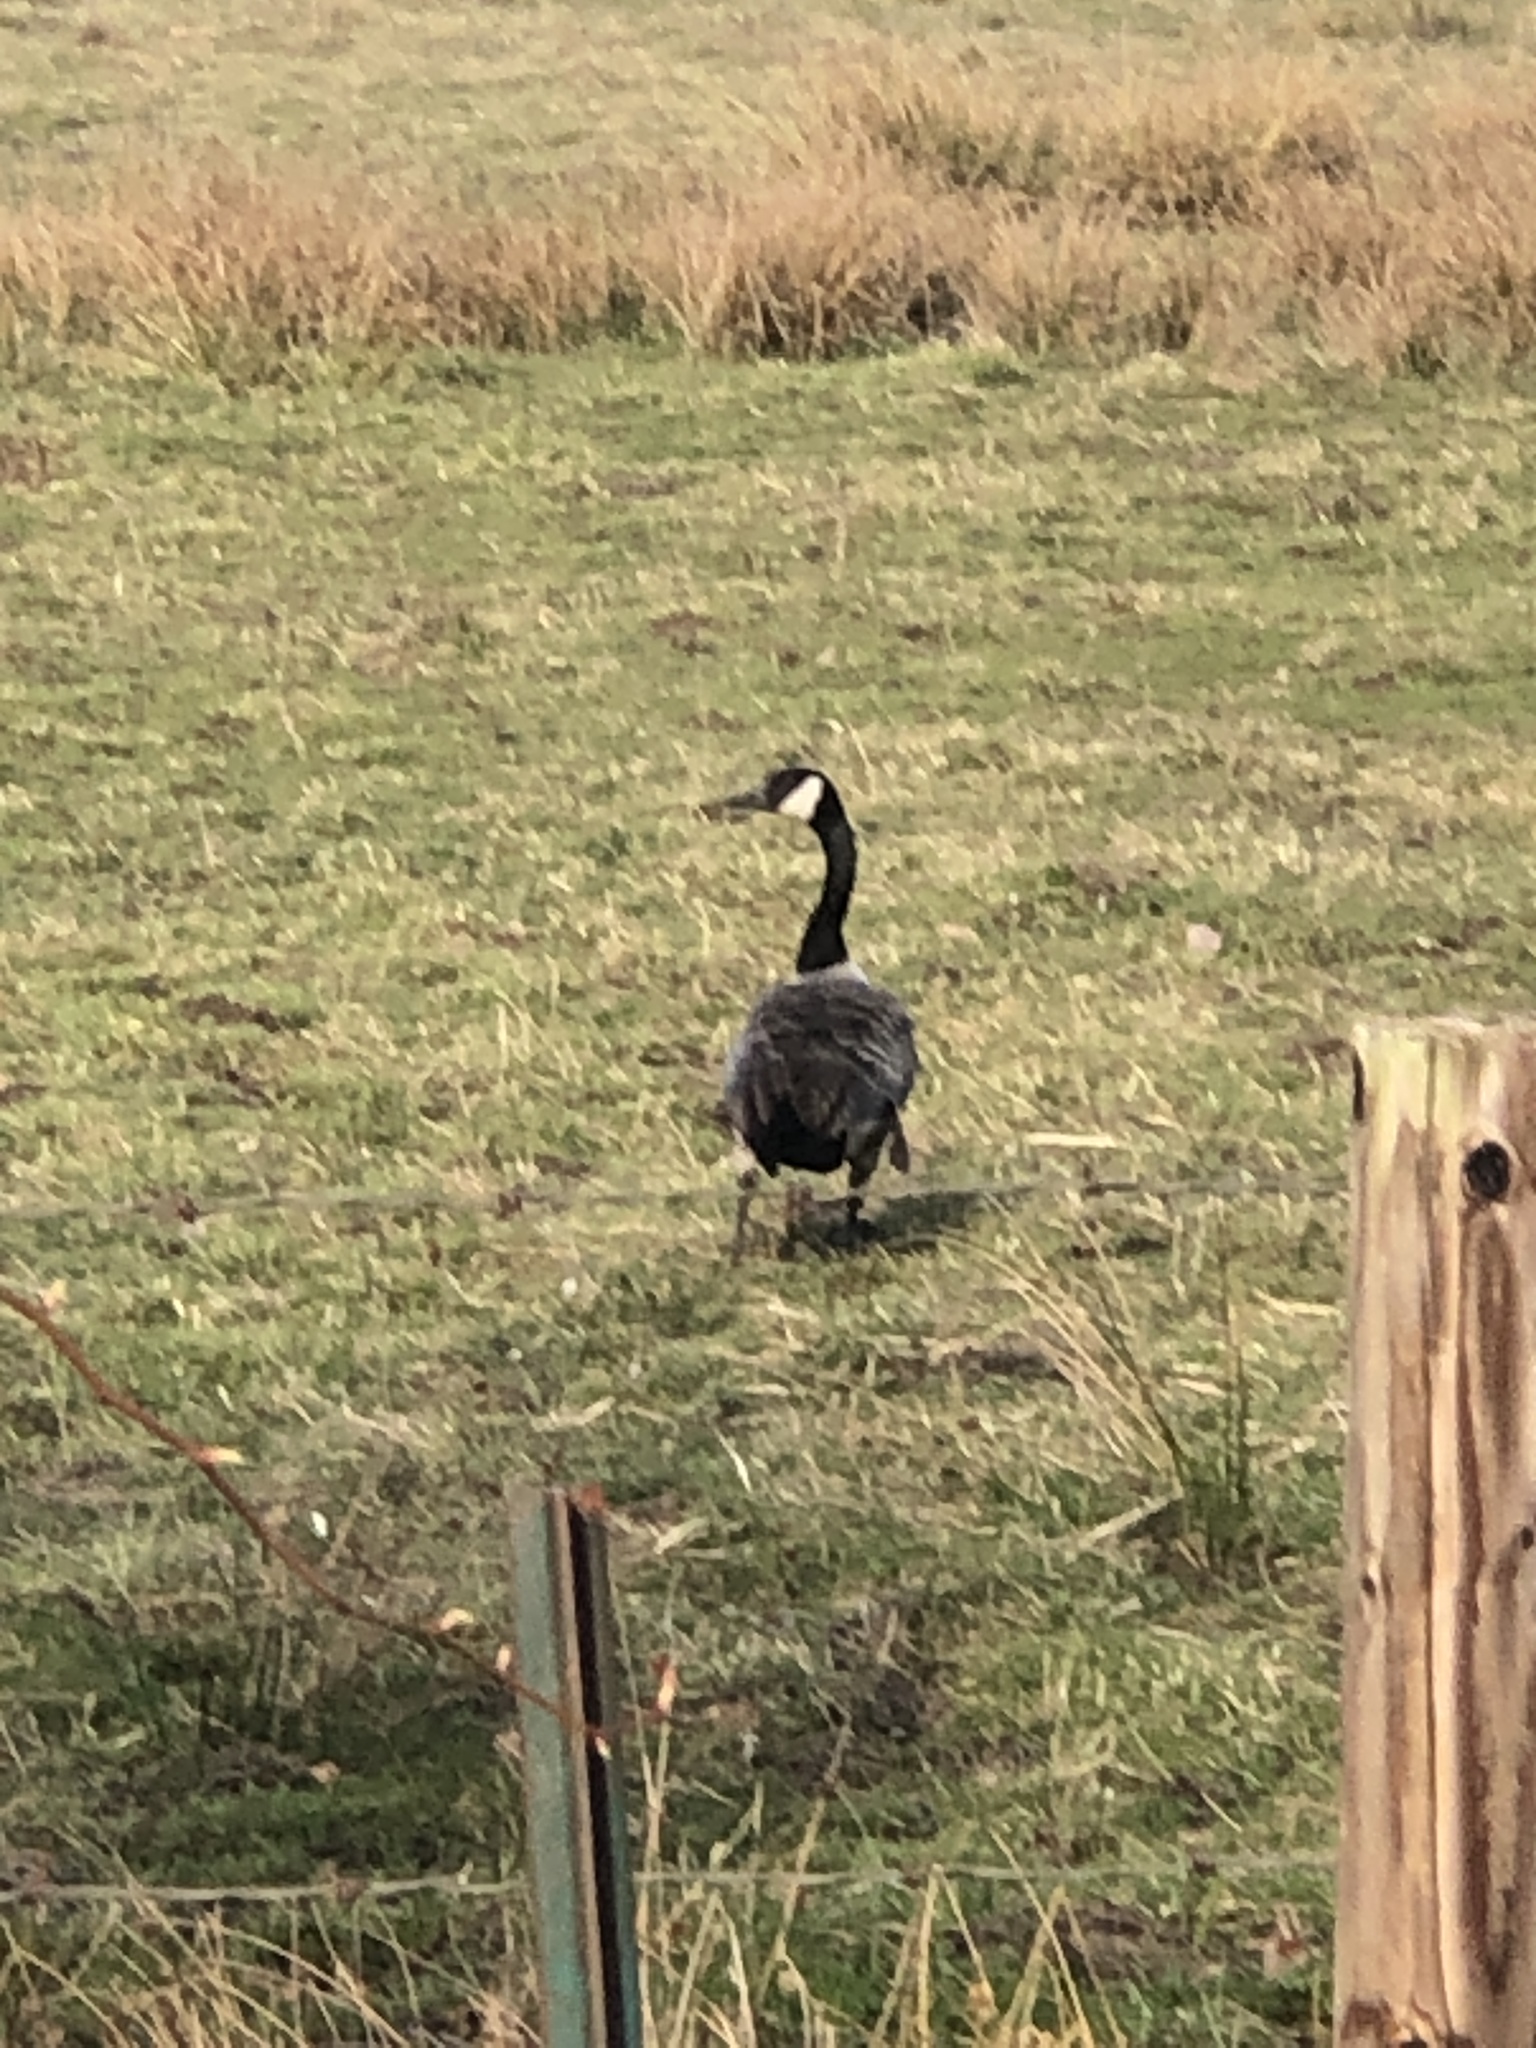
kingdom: Animalia
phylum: Chordata
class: Aves
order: Anseriformes
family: Anatidae
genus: Branta
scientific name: Branta canadensis
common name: Canada goose
